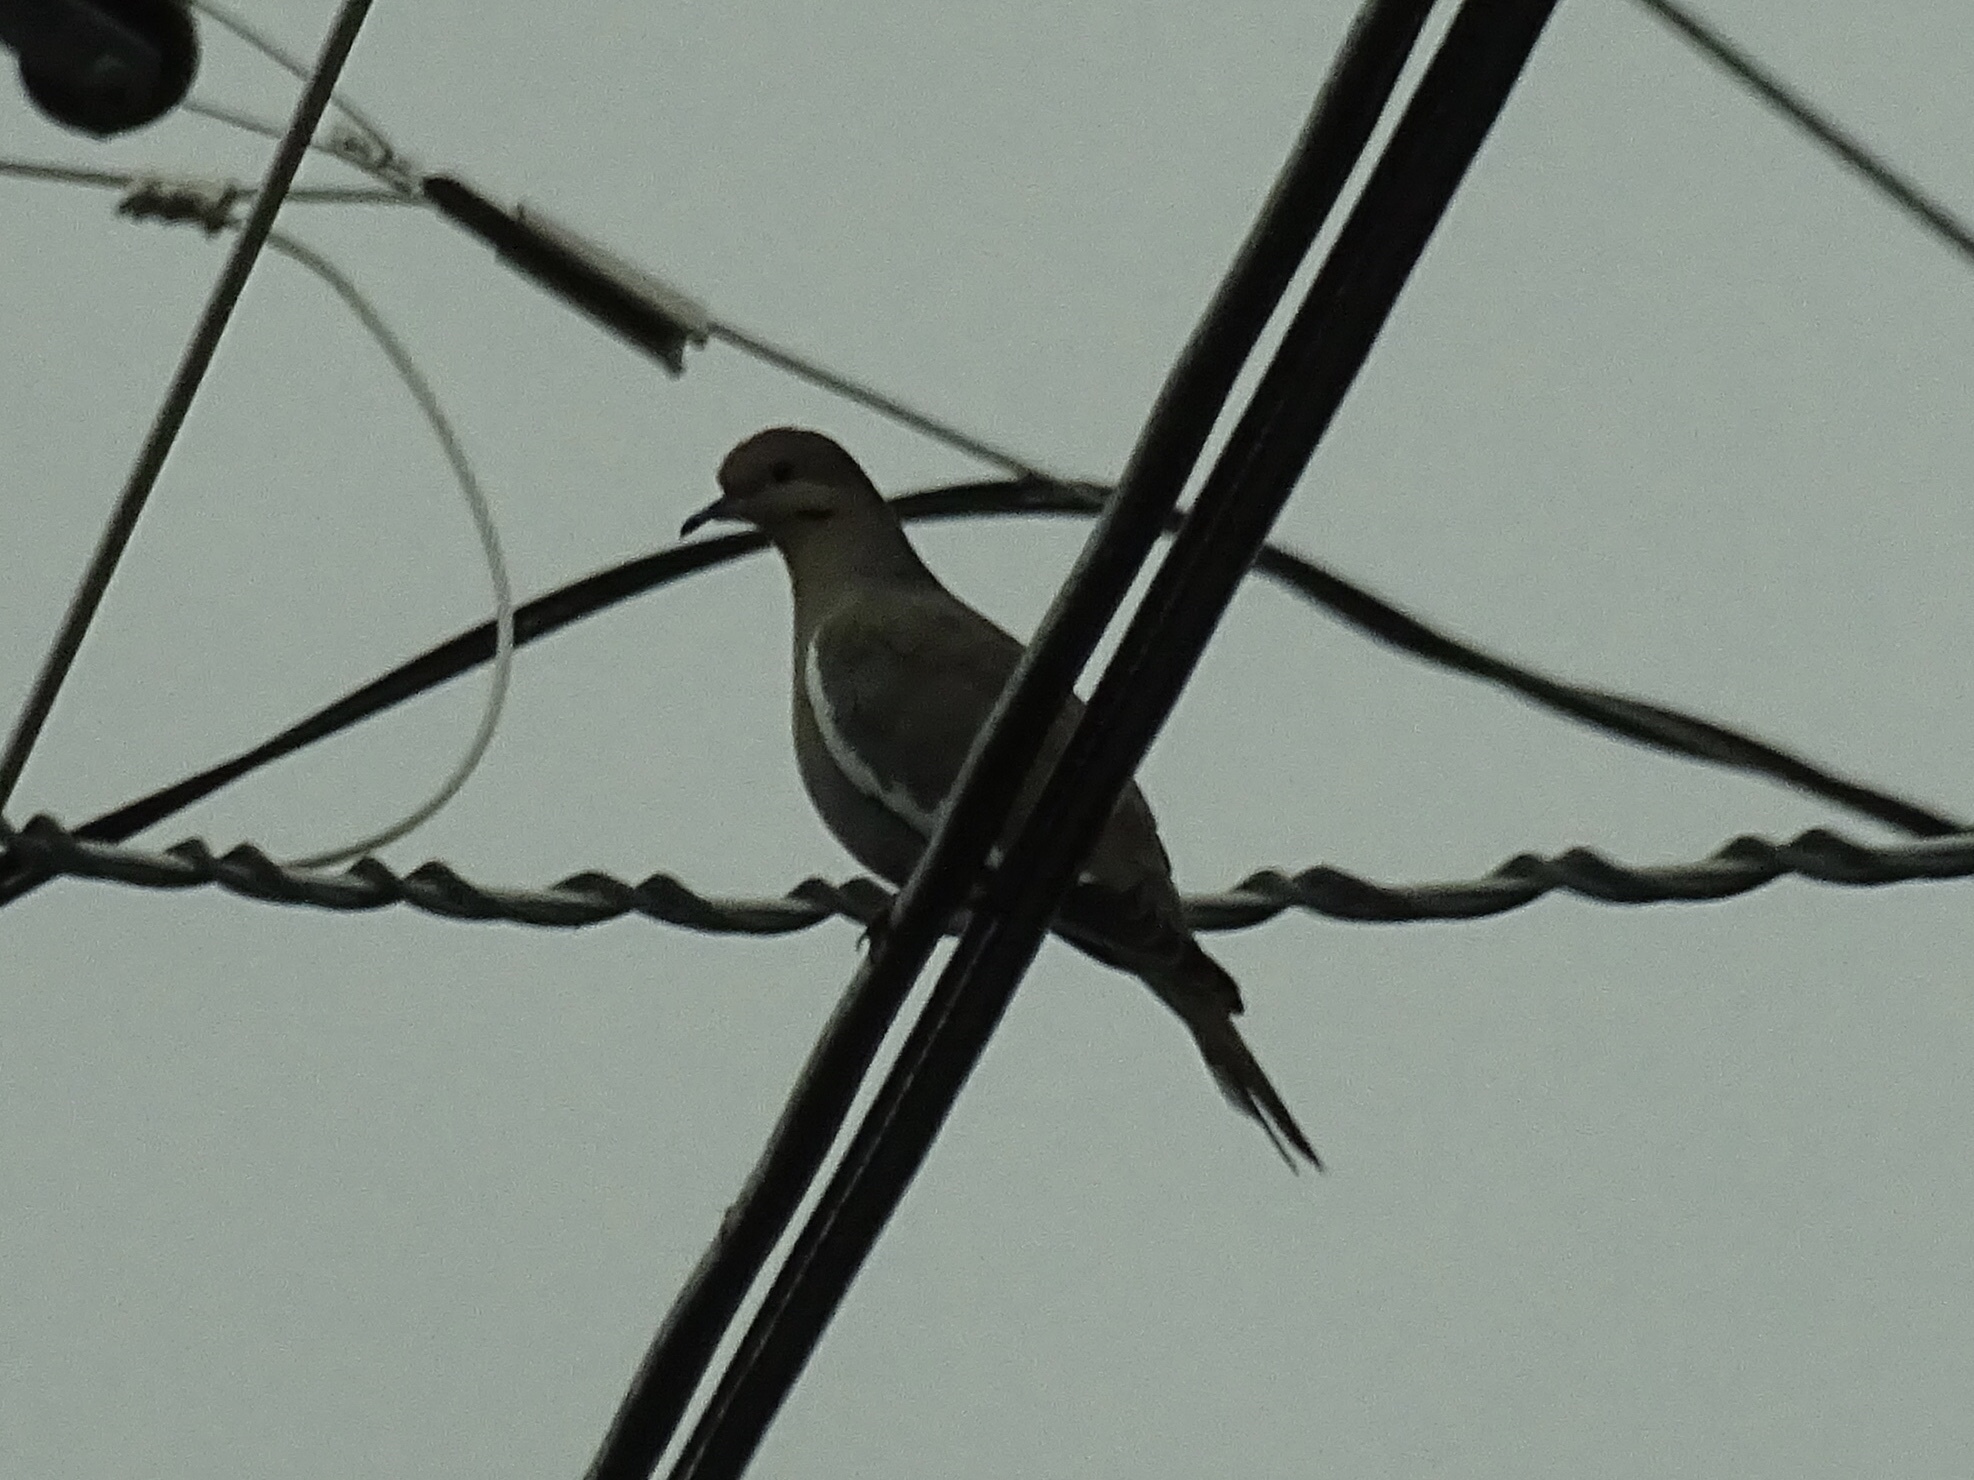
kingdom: Animalia
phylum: Chordata
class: Aves
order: Columbiformes
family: Columbidae
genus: Zenaida
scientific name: Zenaida asiatica
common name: White-winged dove
